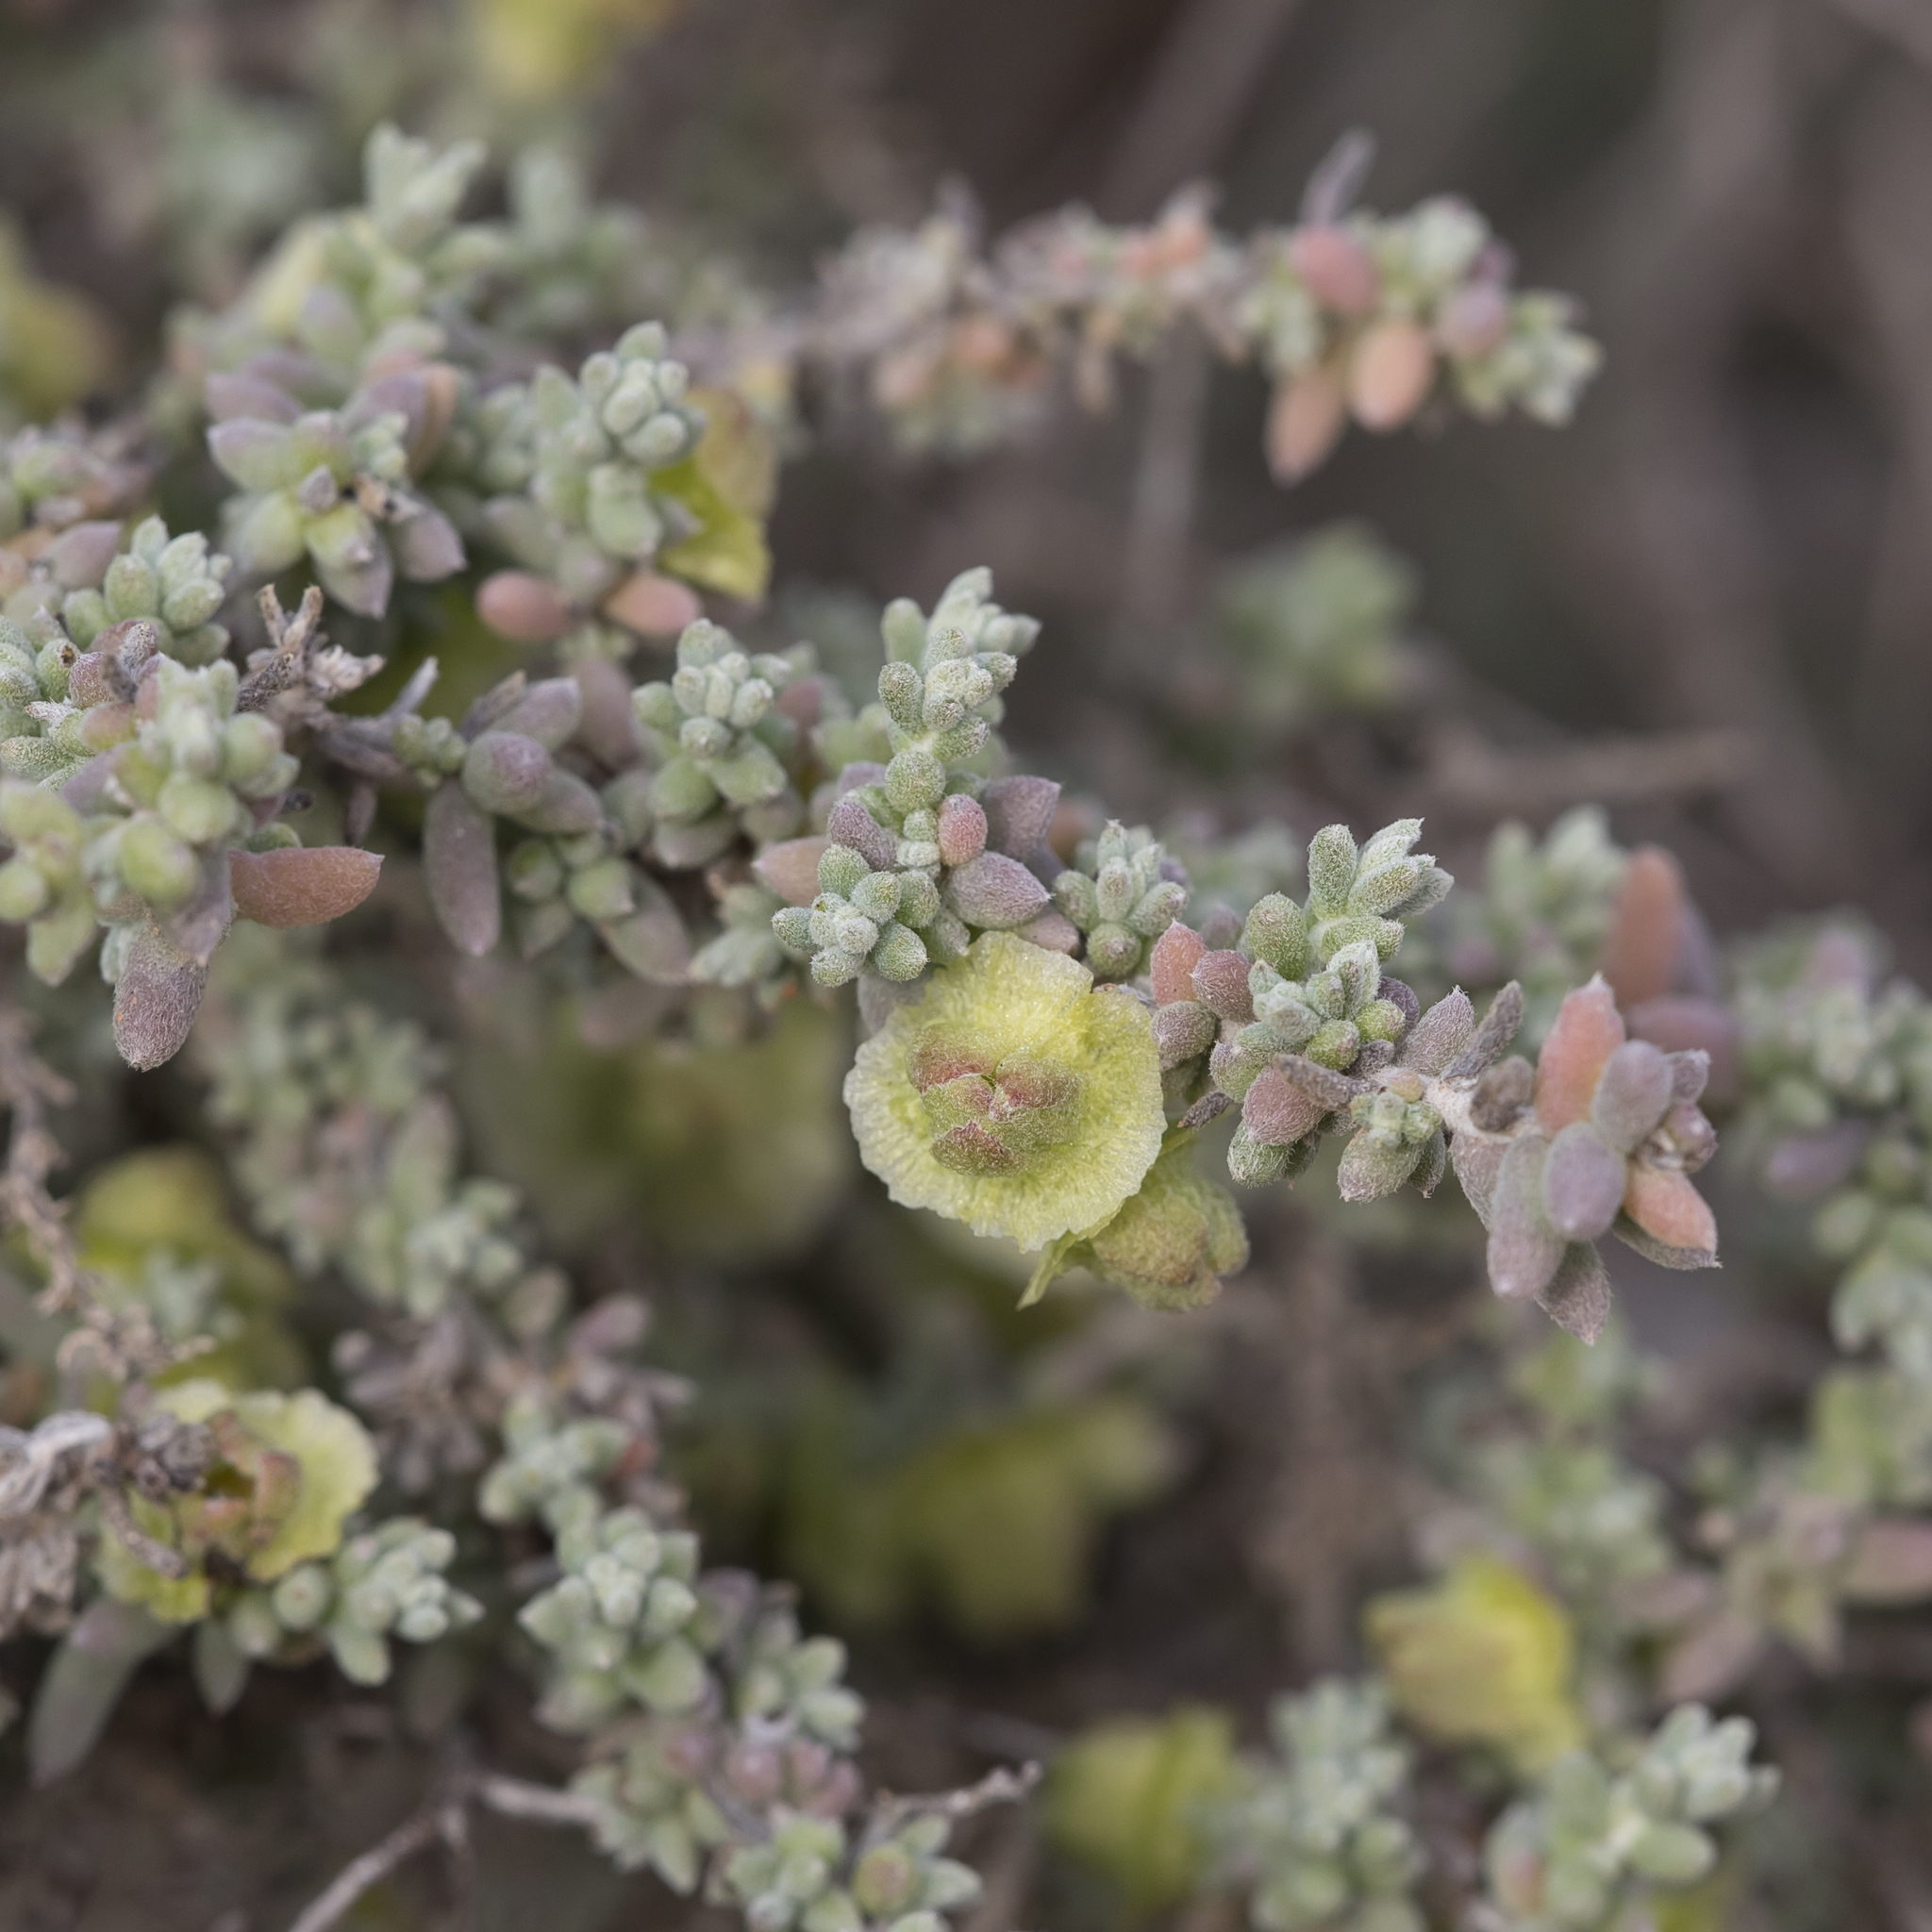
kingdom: Plantae
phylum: Tracheophyta
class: Magnoliopsida
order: Caryophyllales
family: Amaranthaceae
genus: Maireana
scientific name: Maireana pyramidata
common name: Sagobush
